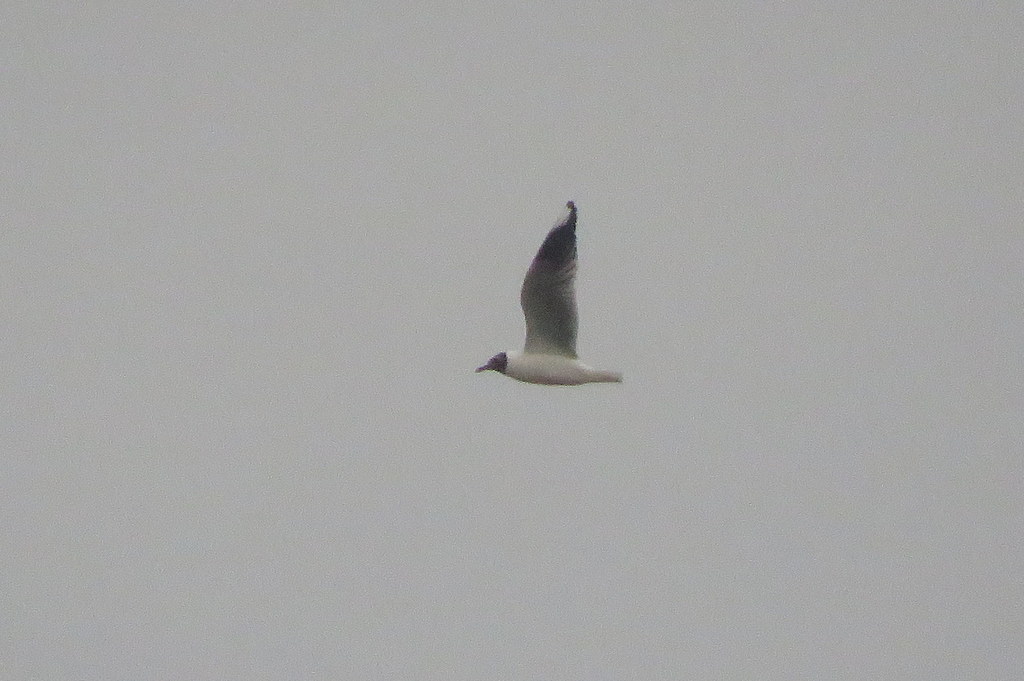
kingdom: Animalia
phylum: Chordata
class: Aves
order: Charadriiformes
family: Laridae
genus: Chroicocephalus
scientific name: Chroicocephalus maculipennis
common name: Brown-hooded gull
